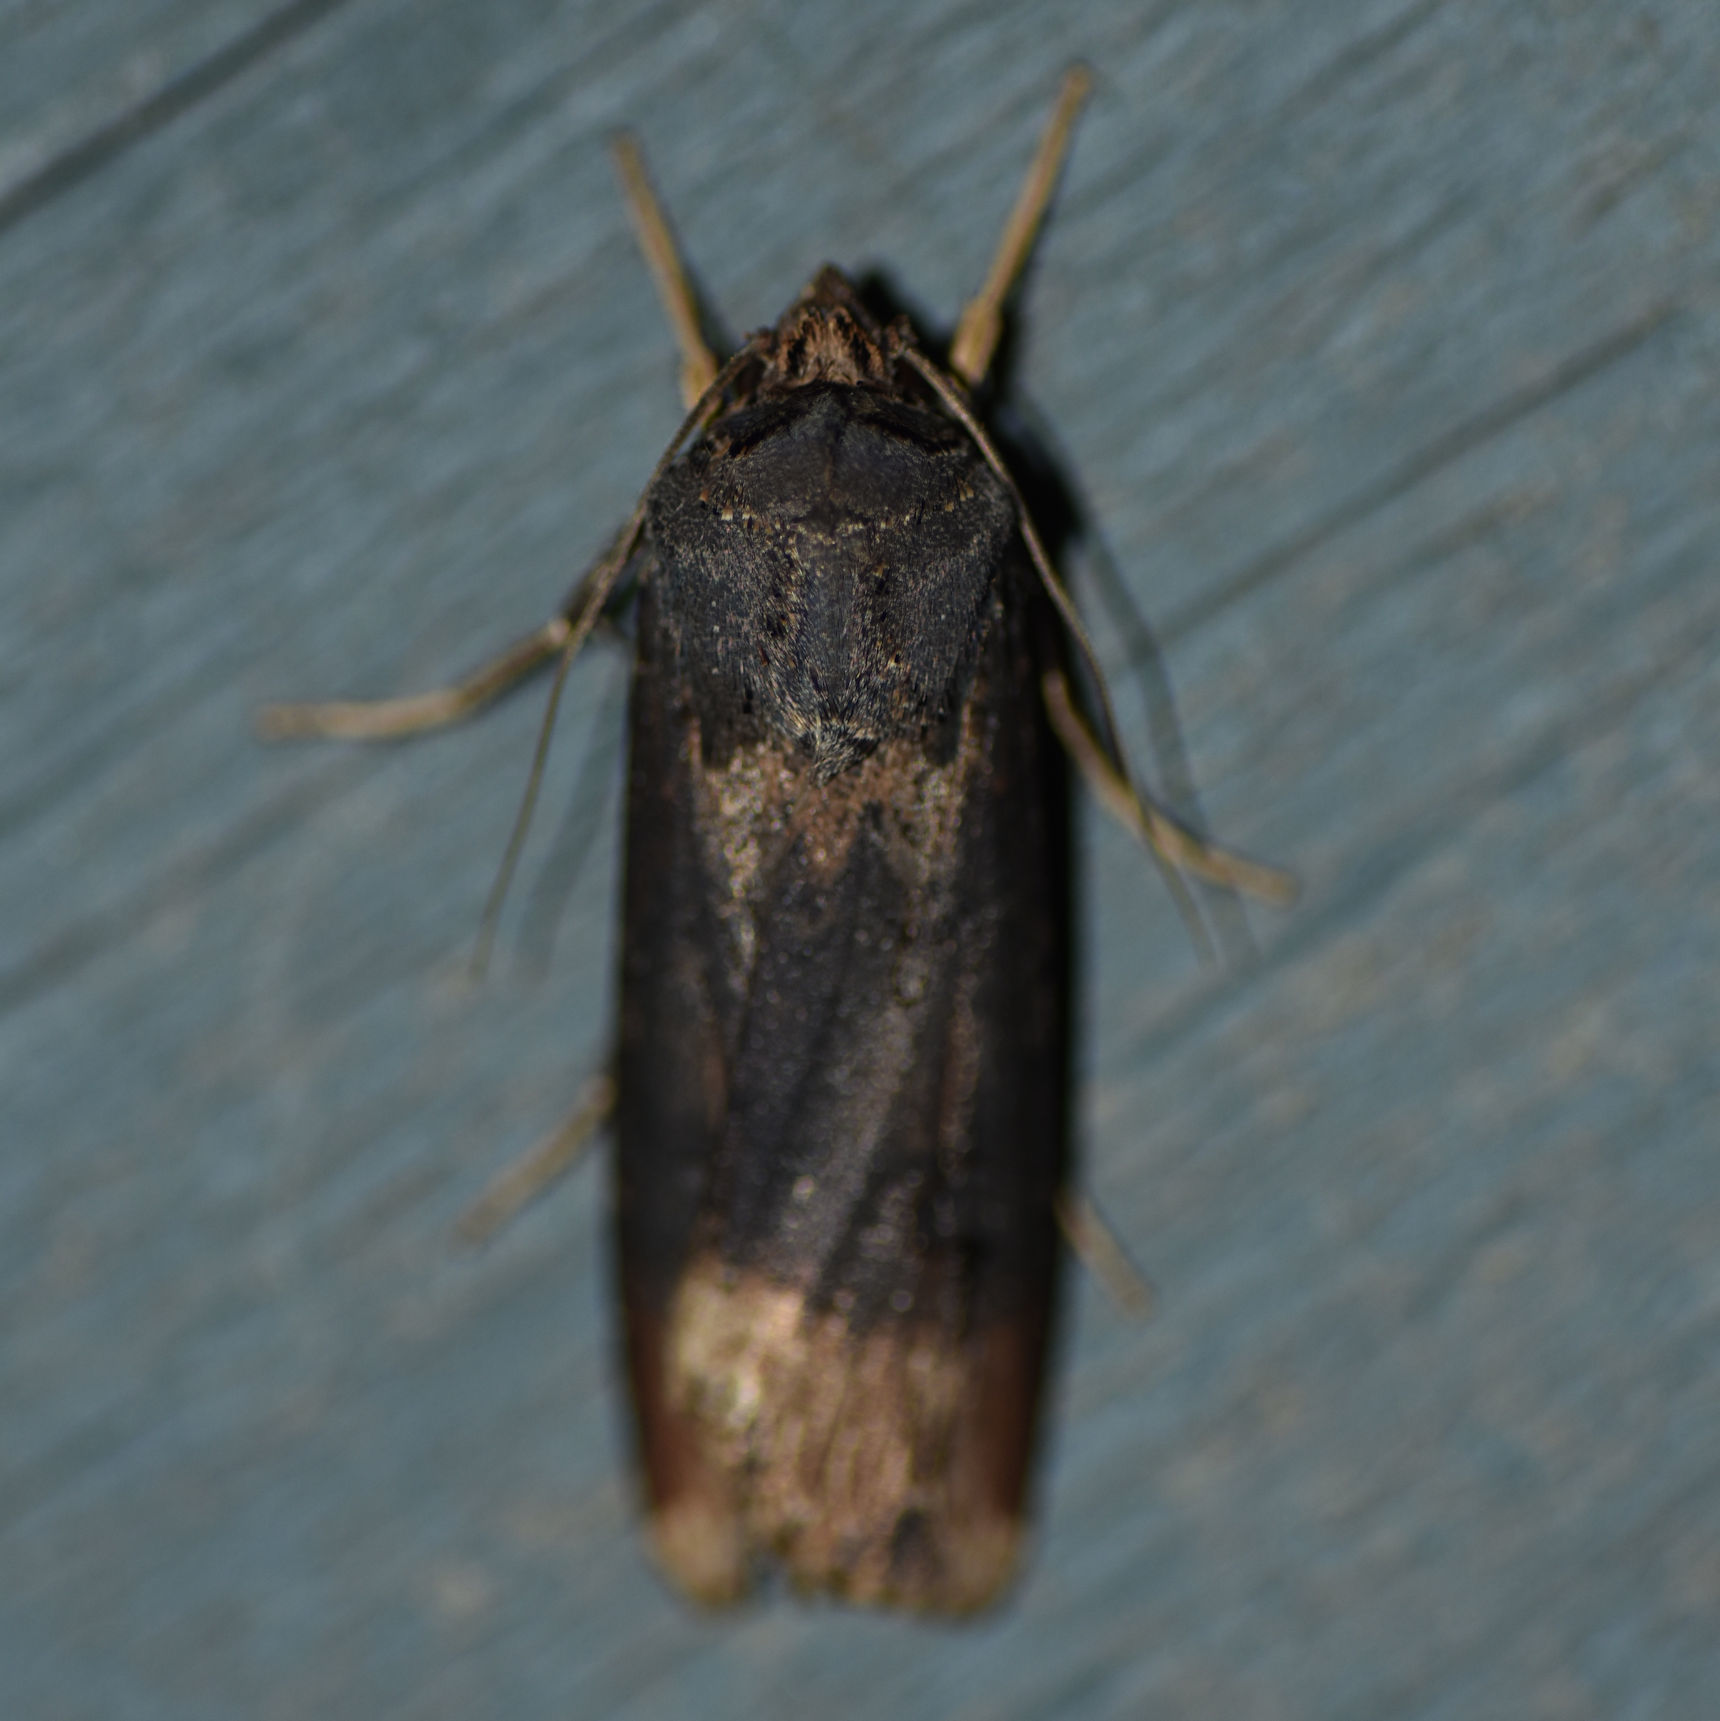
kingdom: Animalia
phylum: Arthropoda
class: Insecta
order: Lepidoptera
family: Noctuidae
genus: Agrotis
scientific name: Agrotis ipsilon
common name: Dark sword-grass
